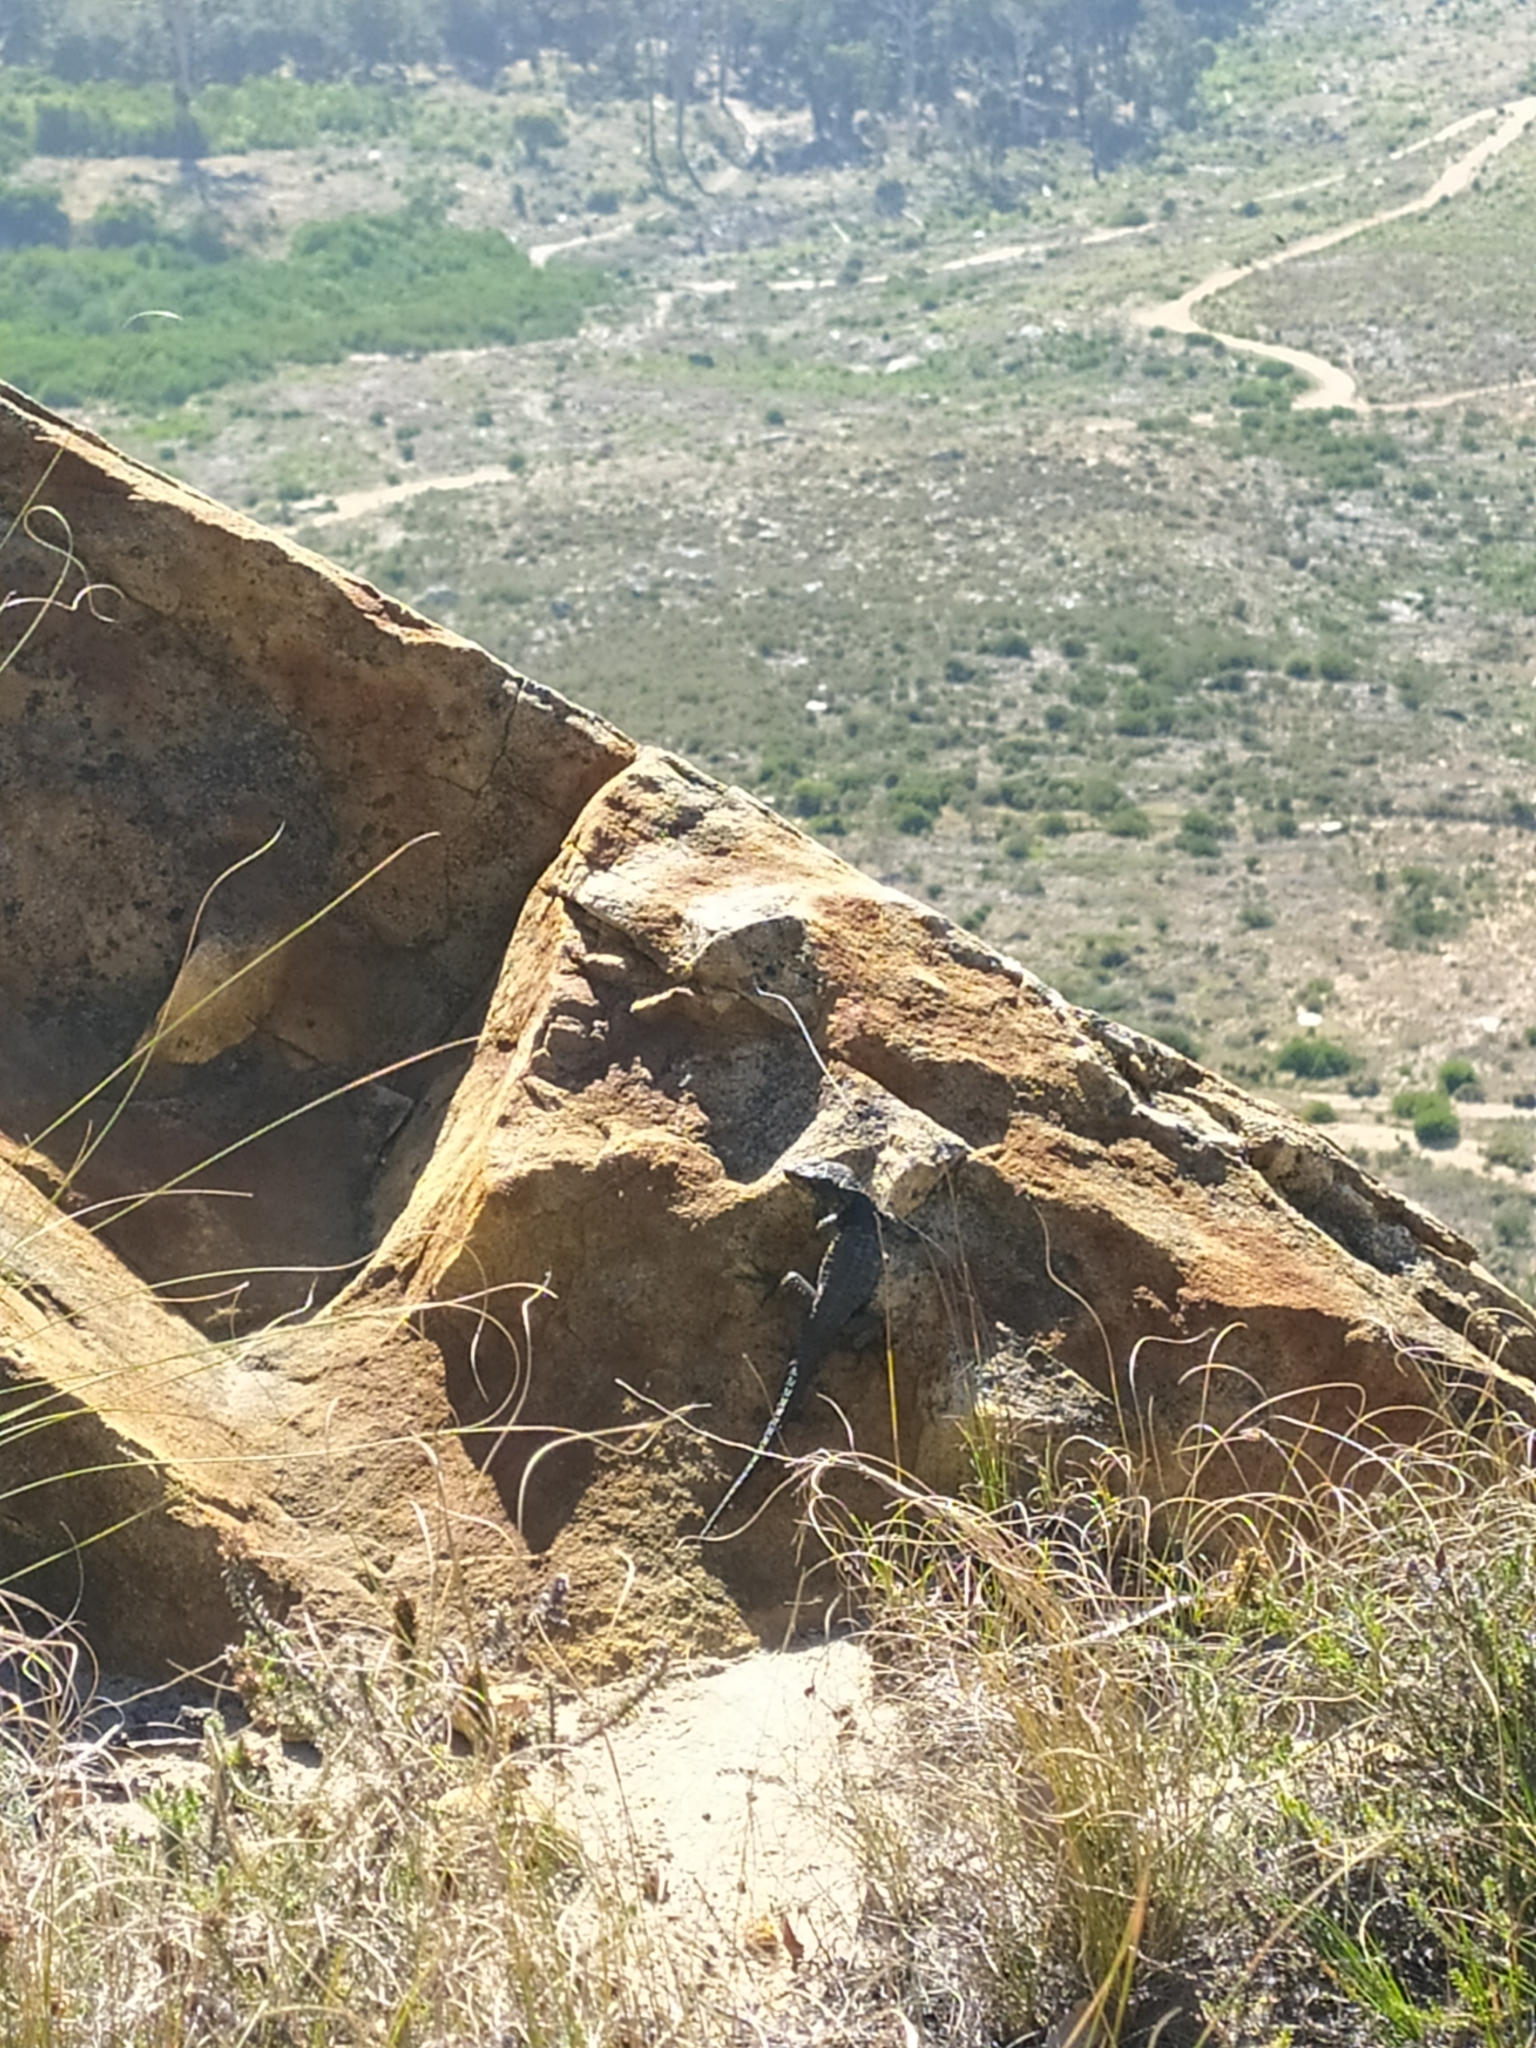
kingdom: Animalia
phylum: Chordata
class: Squamata
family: Cordylidae
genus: Cordylus
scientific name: Cordylus niger
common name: Black girdled lizard
